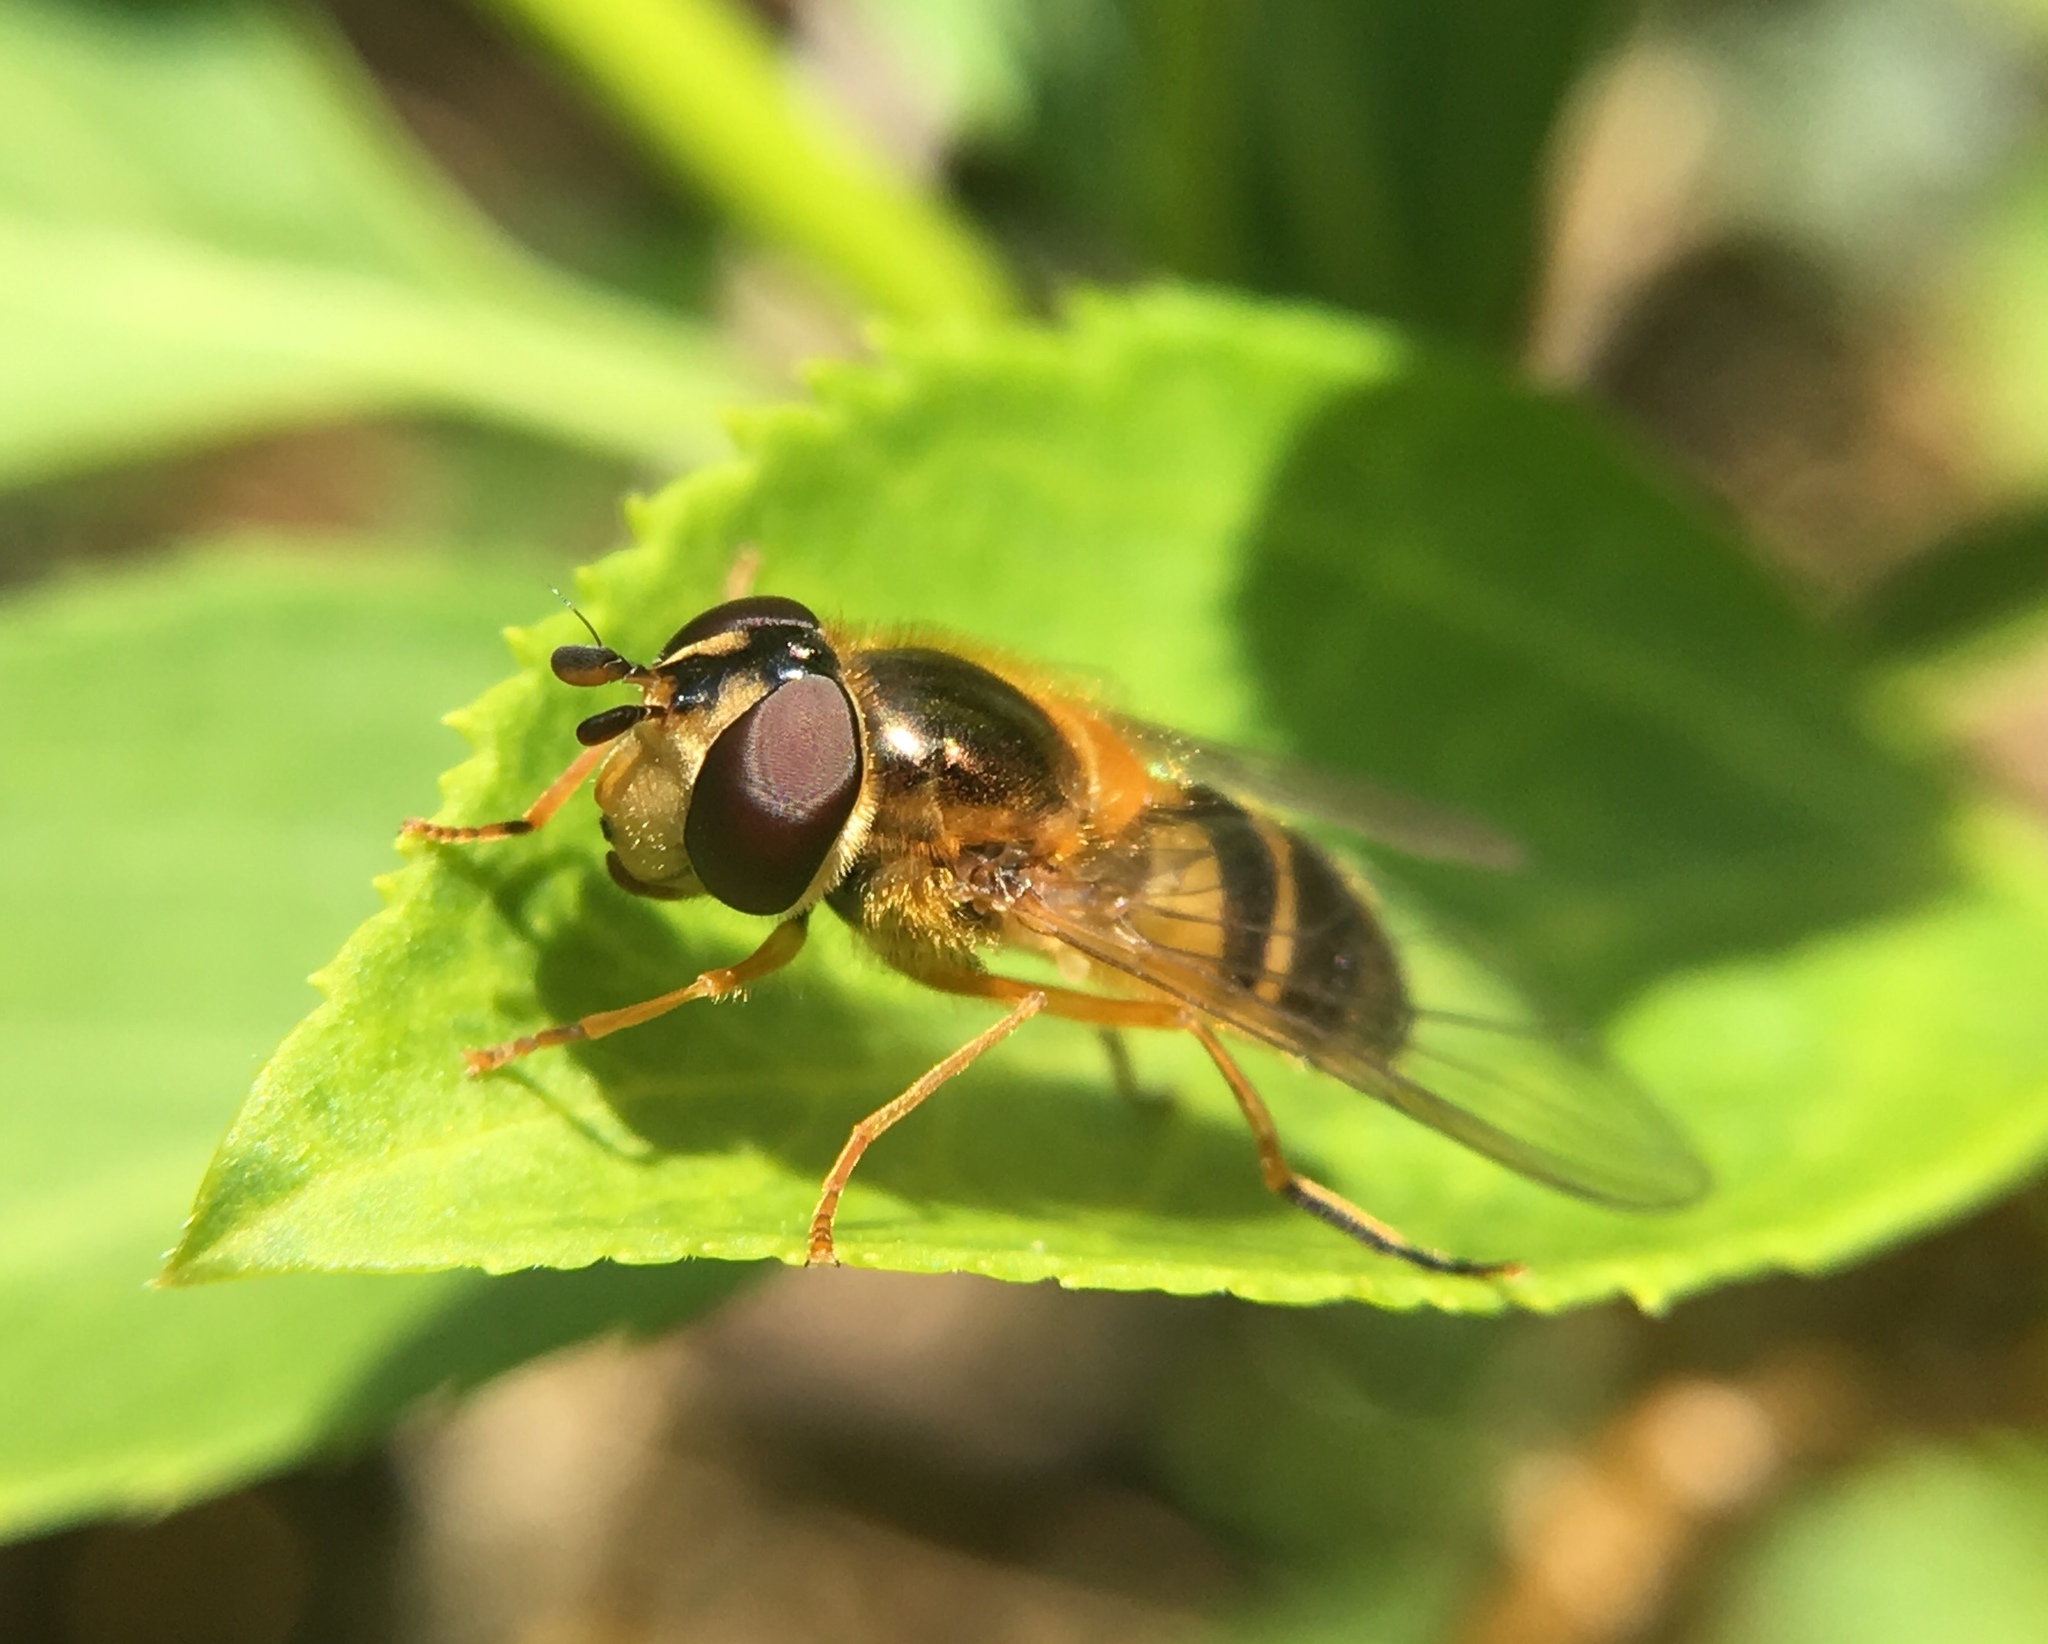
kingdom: Animalia
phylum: Arthropoda
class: Insecta
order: Diptera
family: Syrphidae
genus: Epistrophe
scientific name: Epistrophe eligans
